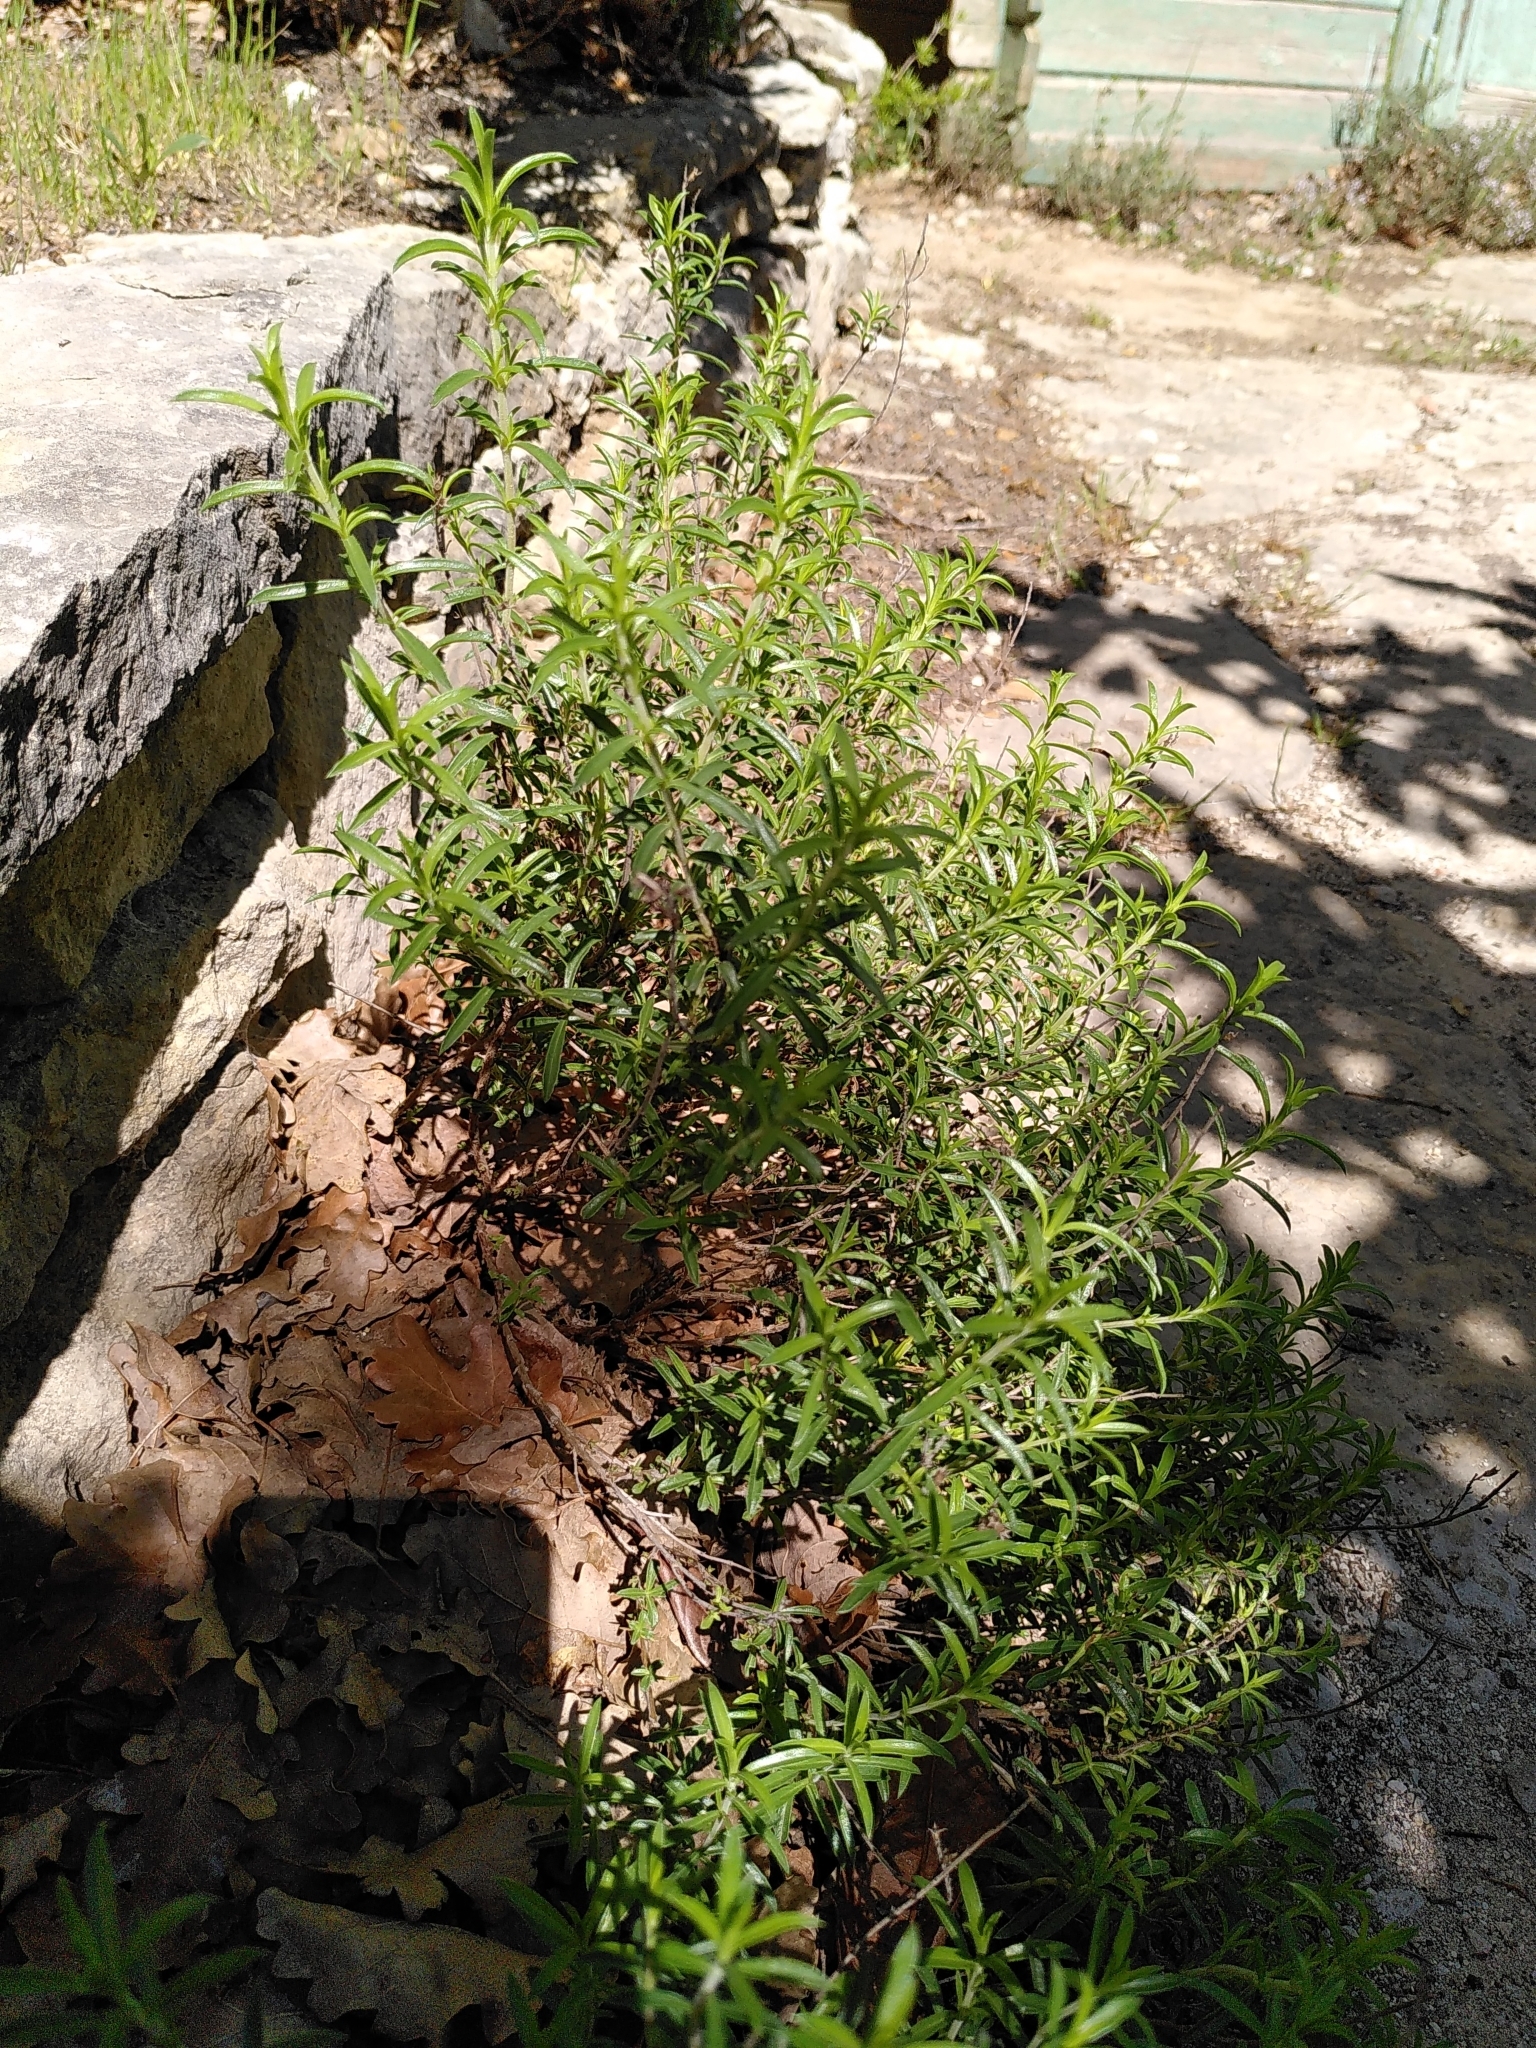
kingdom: Plantae
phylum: Tracheophyta
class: Magnoliopsida
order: Lamiales
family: Lamiaceae
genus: Satureja
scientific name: Satureja montana
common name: Winter savory
